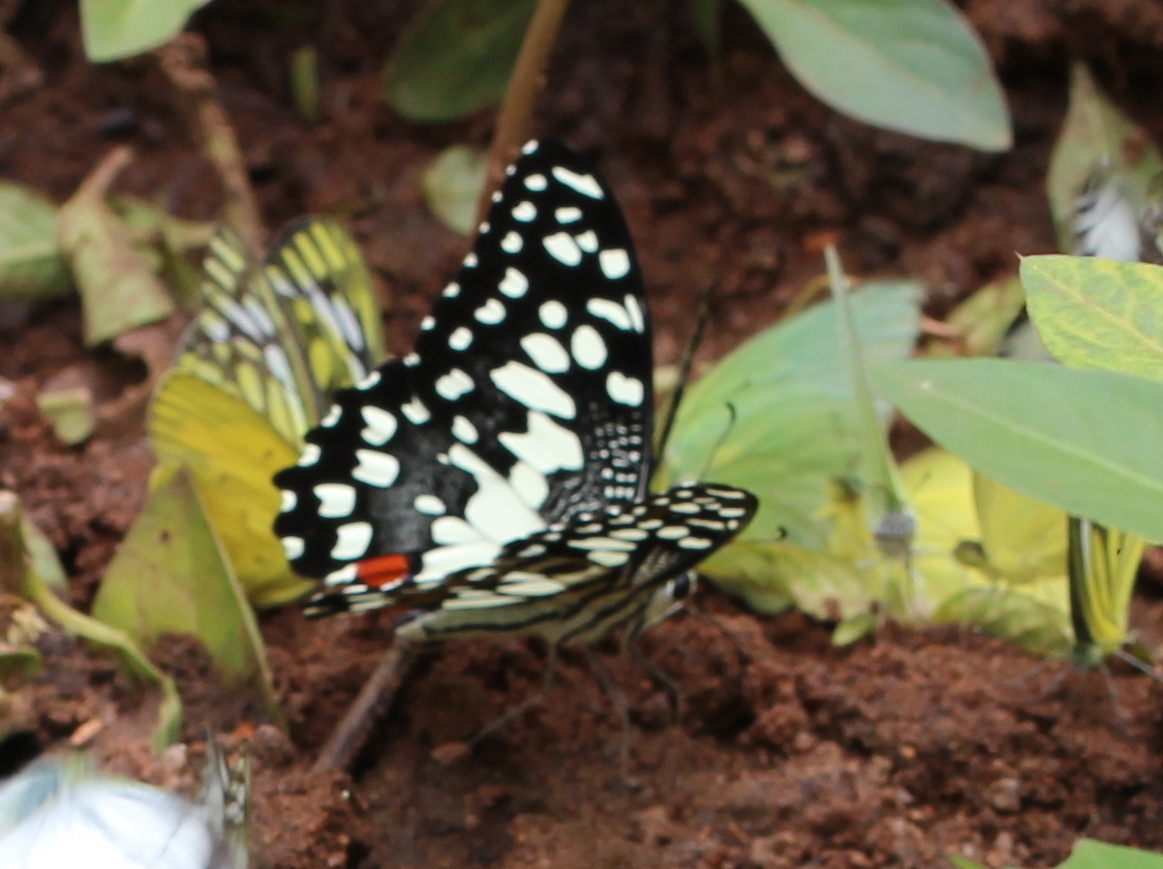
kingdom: Animalia
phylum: Arthropoda
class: Insecta
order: Lepidoptera
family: Papilionidae
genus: Papilio
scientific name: Papilio demoleus
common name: Lime butterfly
